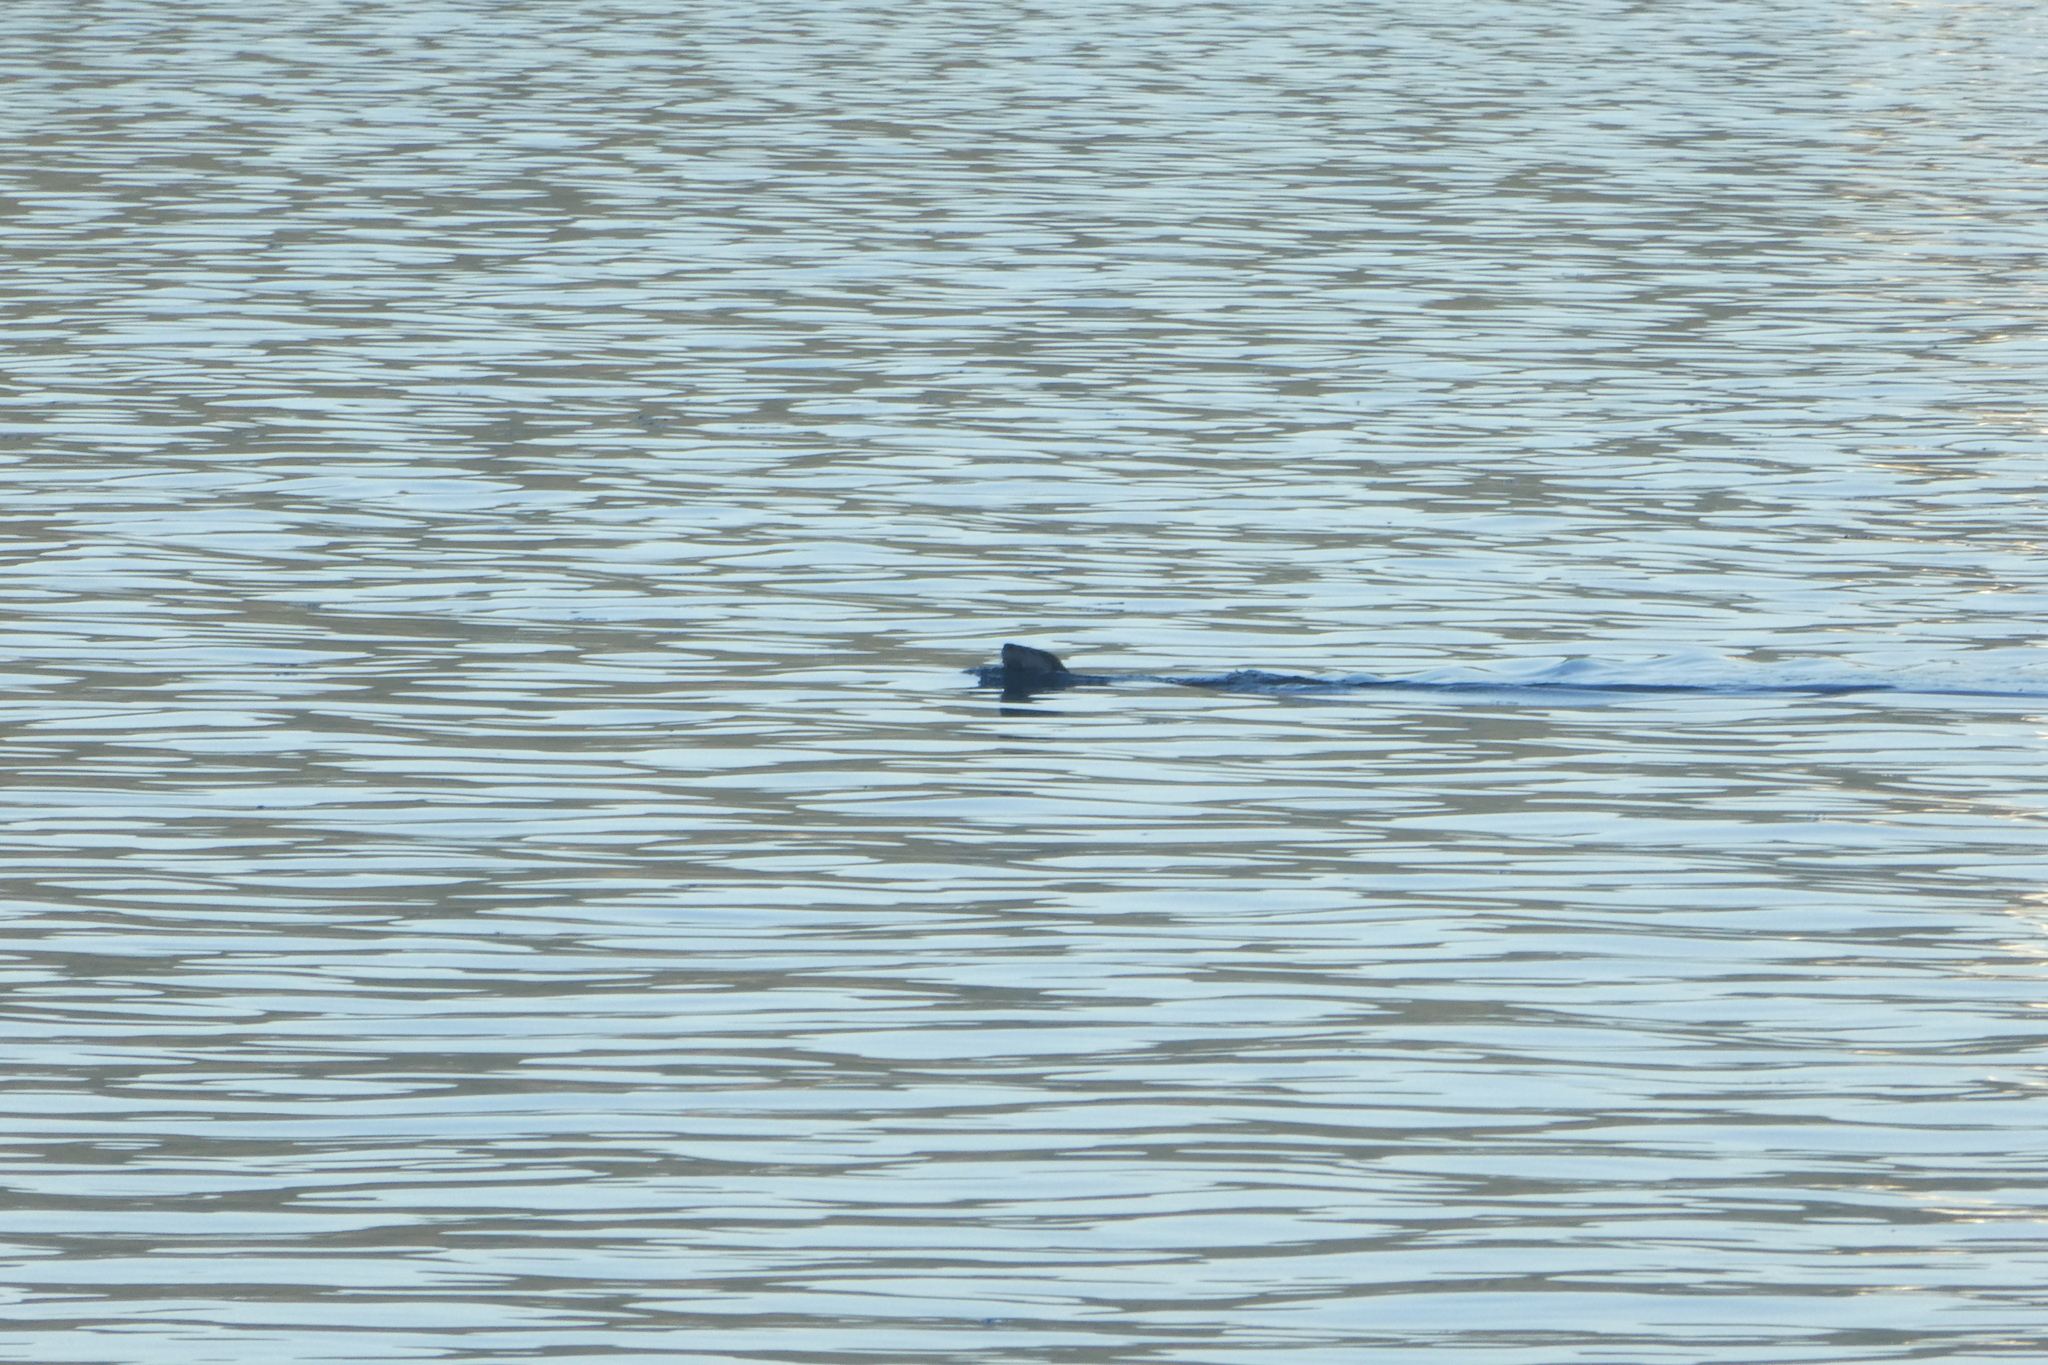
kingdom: Animalia
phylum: Chordata
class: Mammalia
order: Carnivora
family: Mustelidae
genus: Lontra
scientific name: Lontra canadensis
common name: North american river otter
